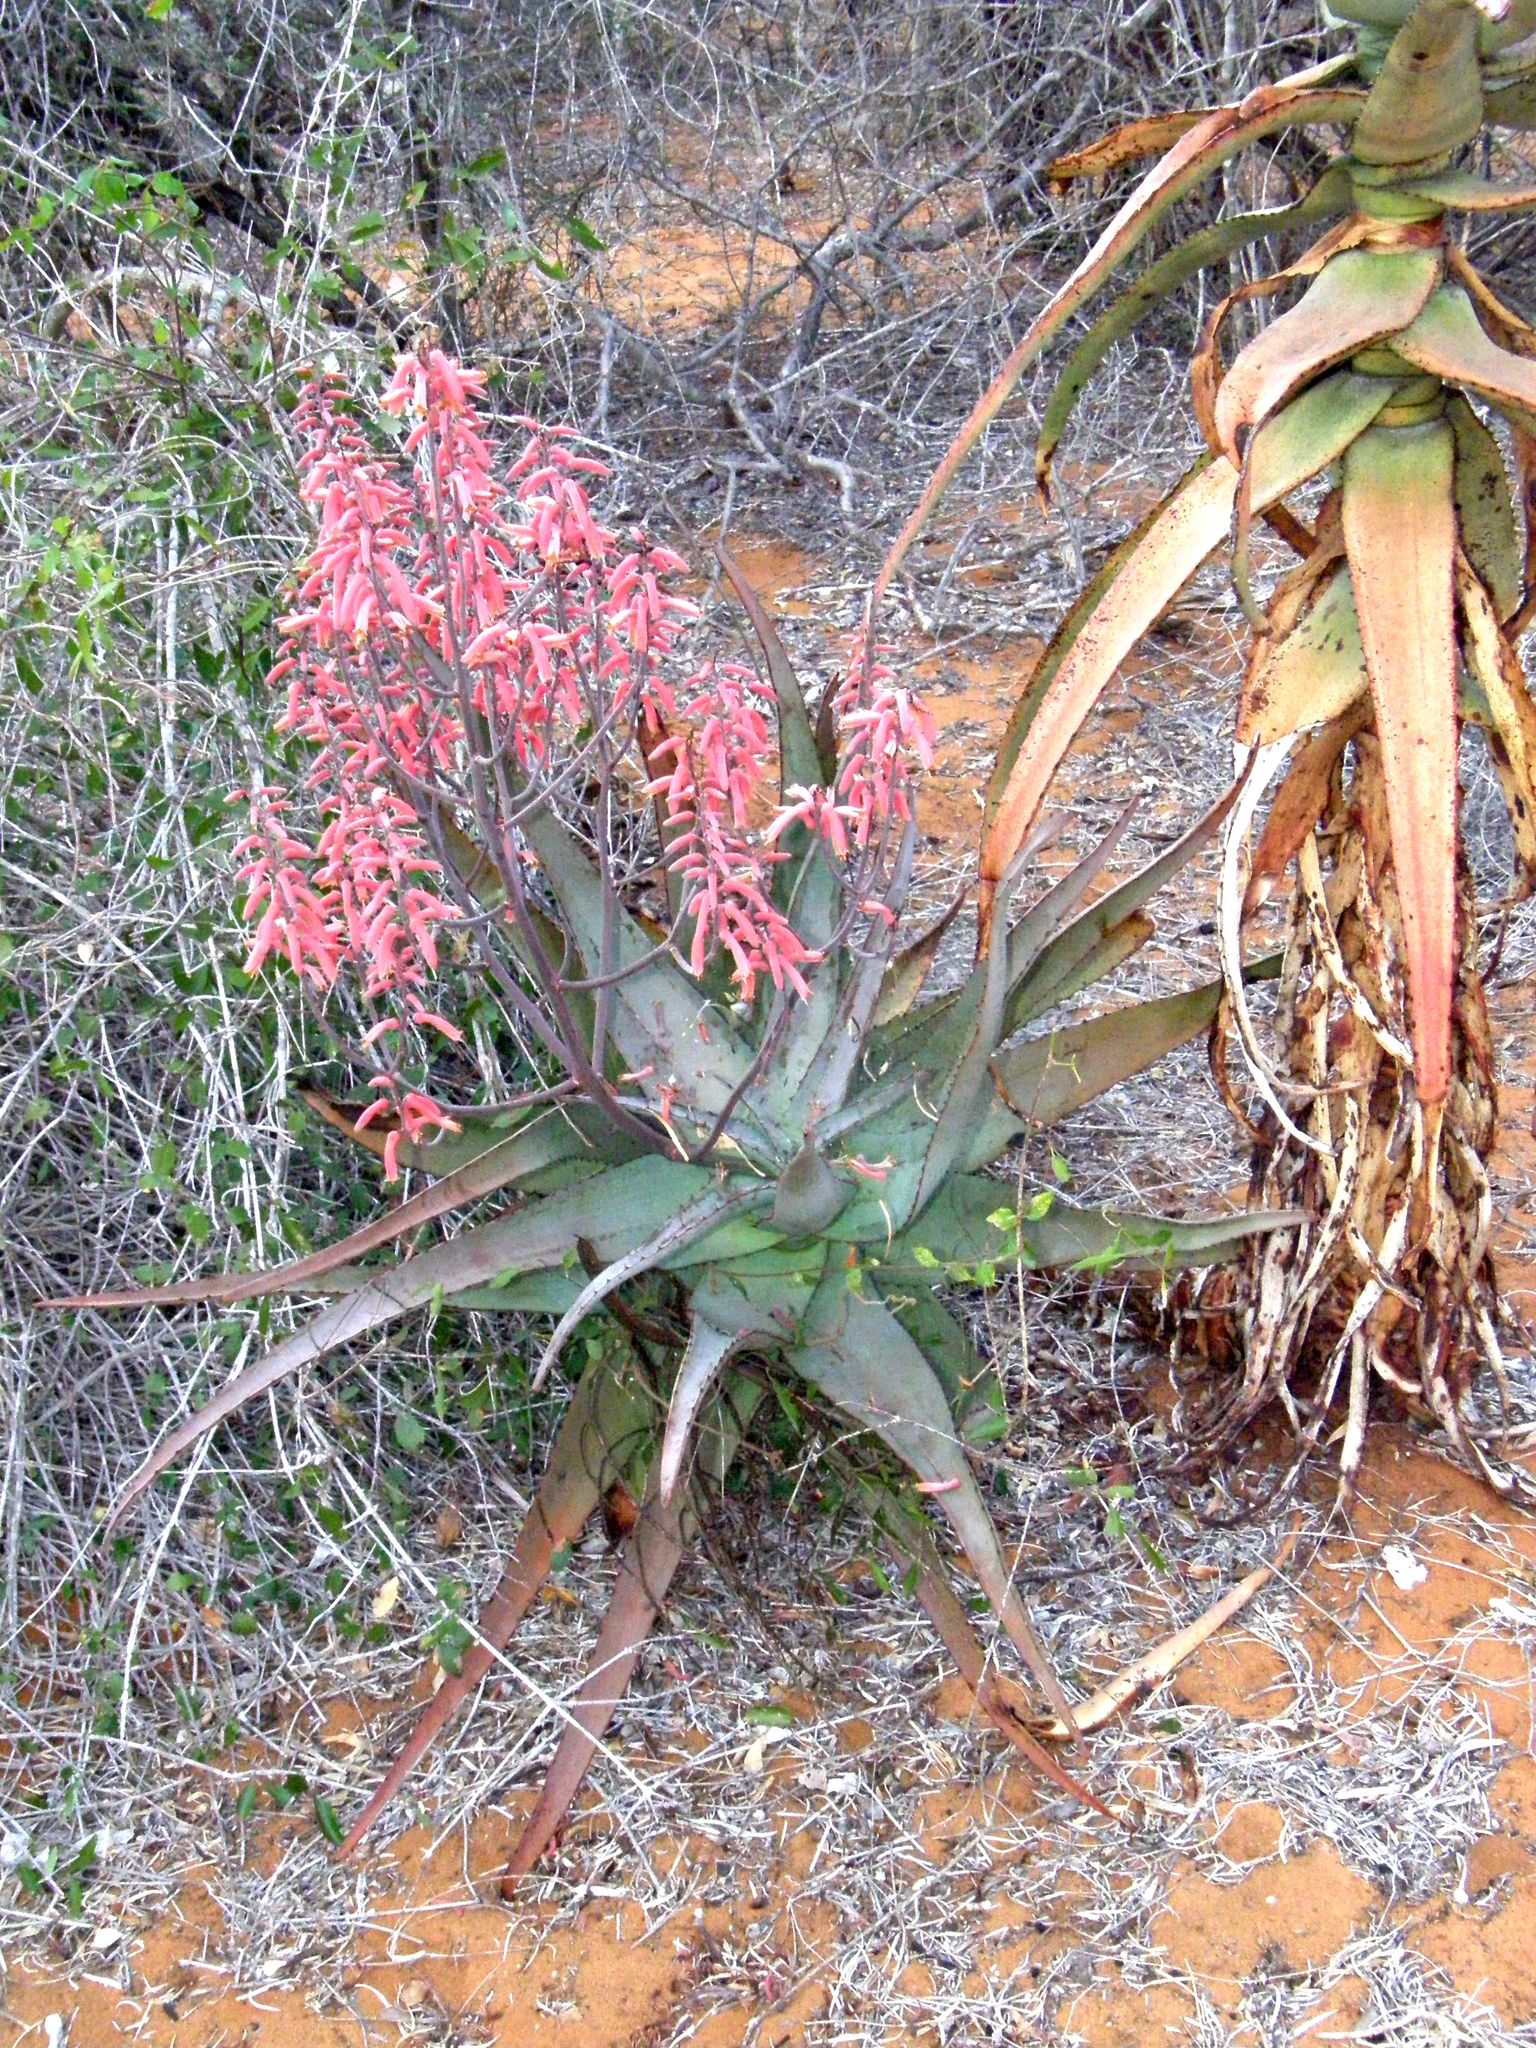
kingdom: Plantae
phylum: Tracheophyta
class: Liliopsida
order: Asparagales
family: Asphodelaceae
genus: Aloe
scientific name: Aloe divaricata
